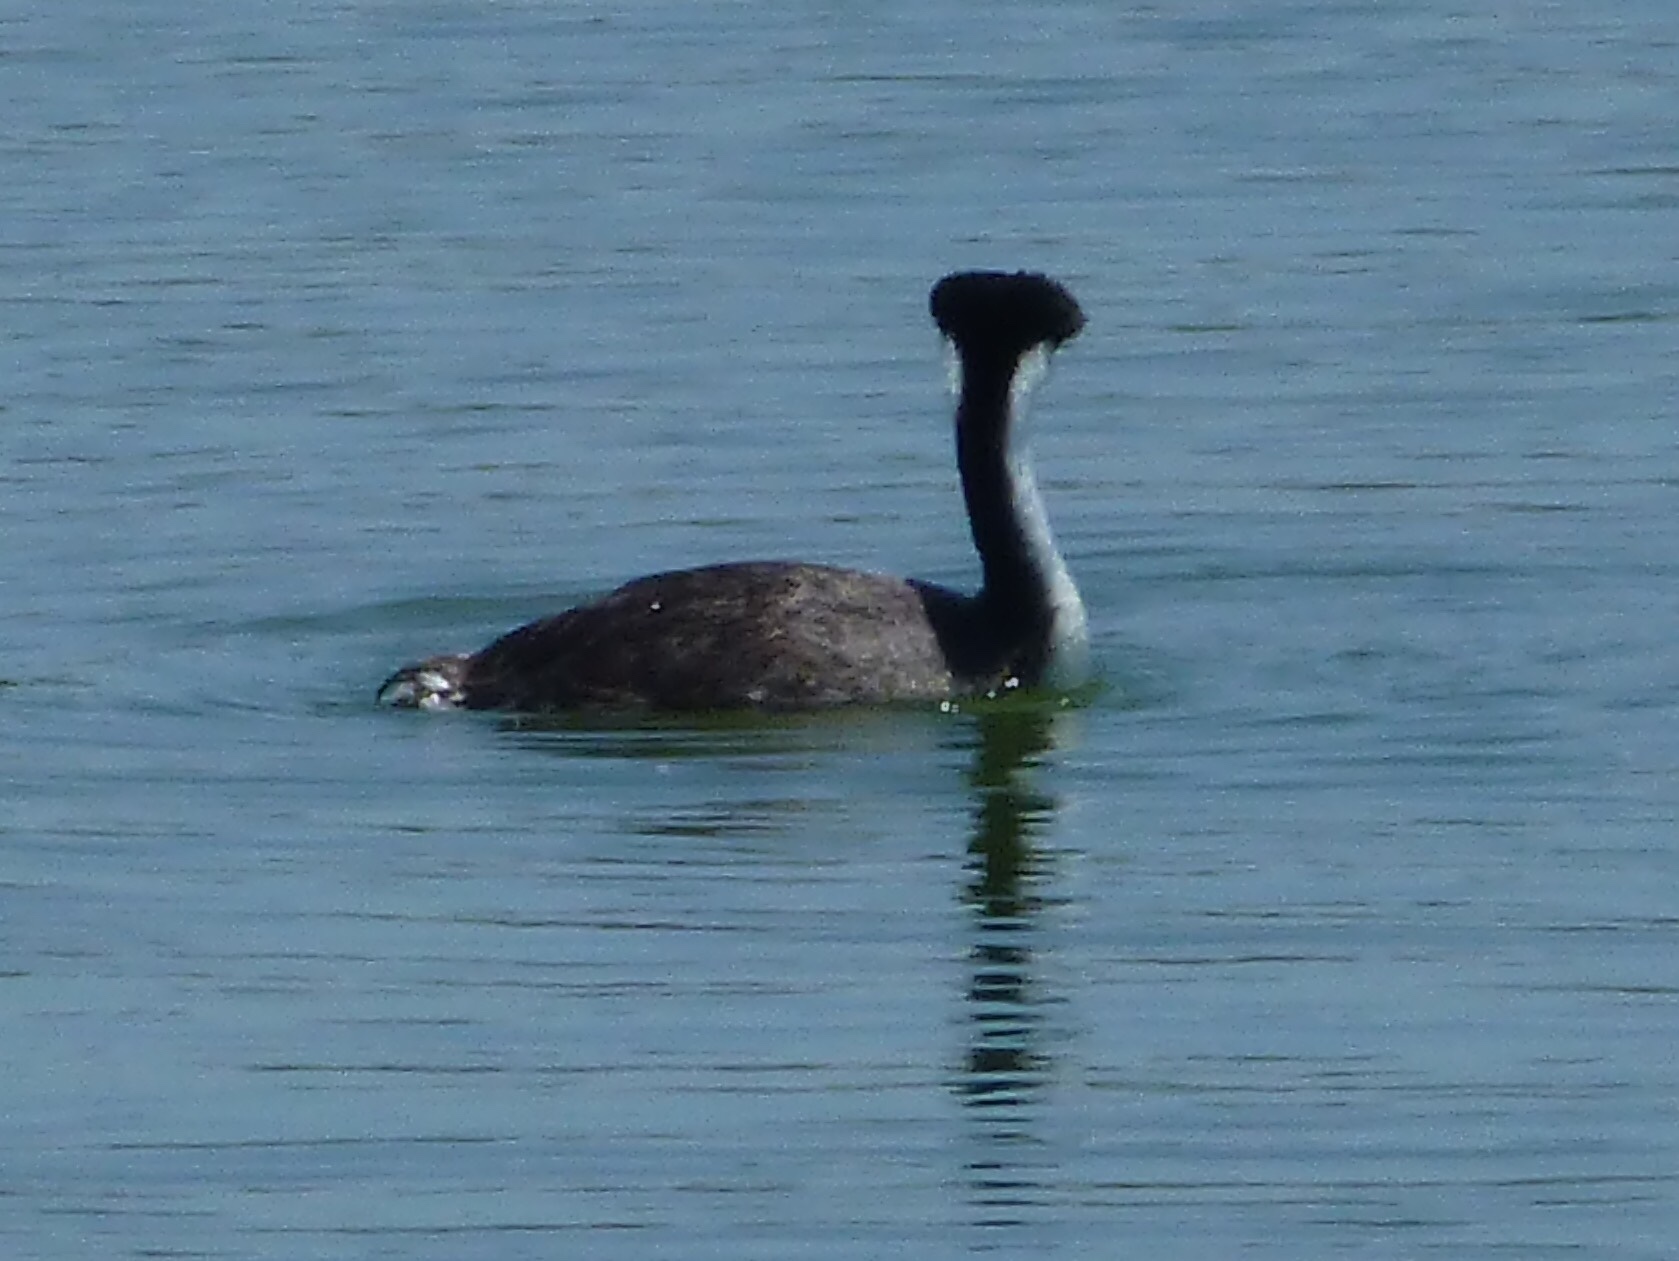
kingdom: Animalia
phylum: Chordata
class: Aves
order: Podicipediformes
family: Podicipedidae
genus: Aechmophorus
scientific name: Aechmophorus occidentalis
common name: Western grebe
